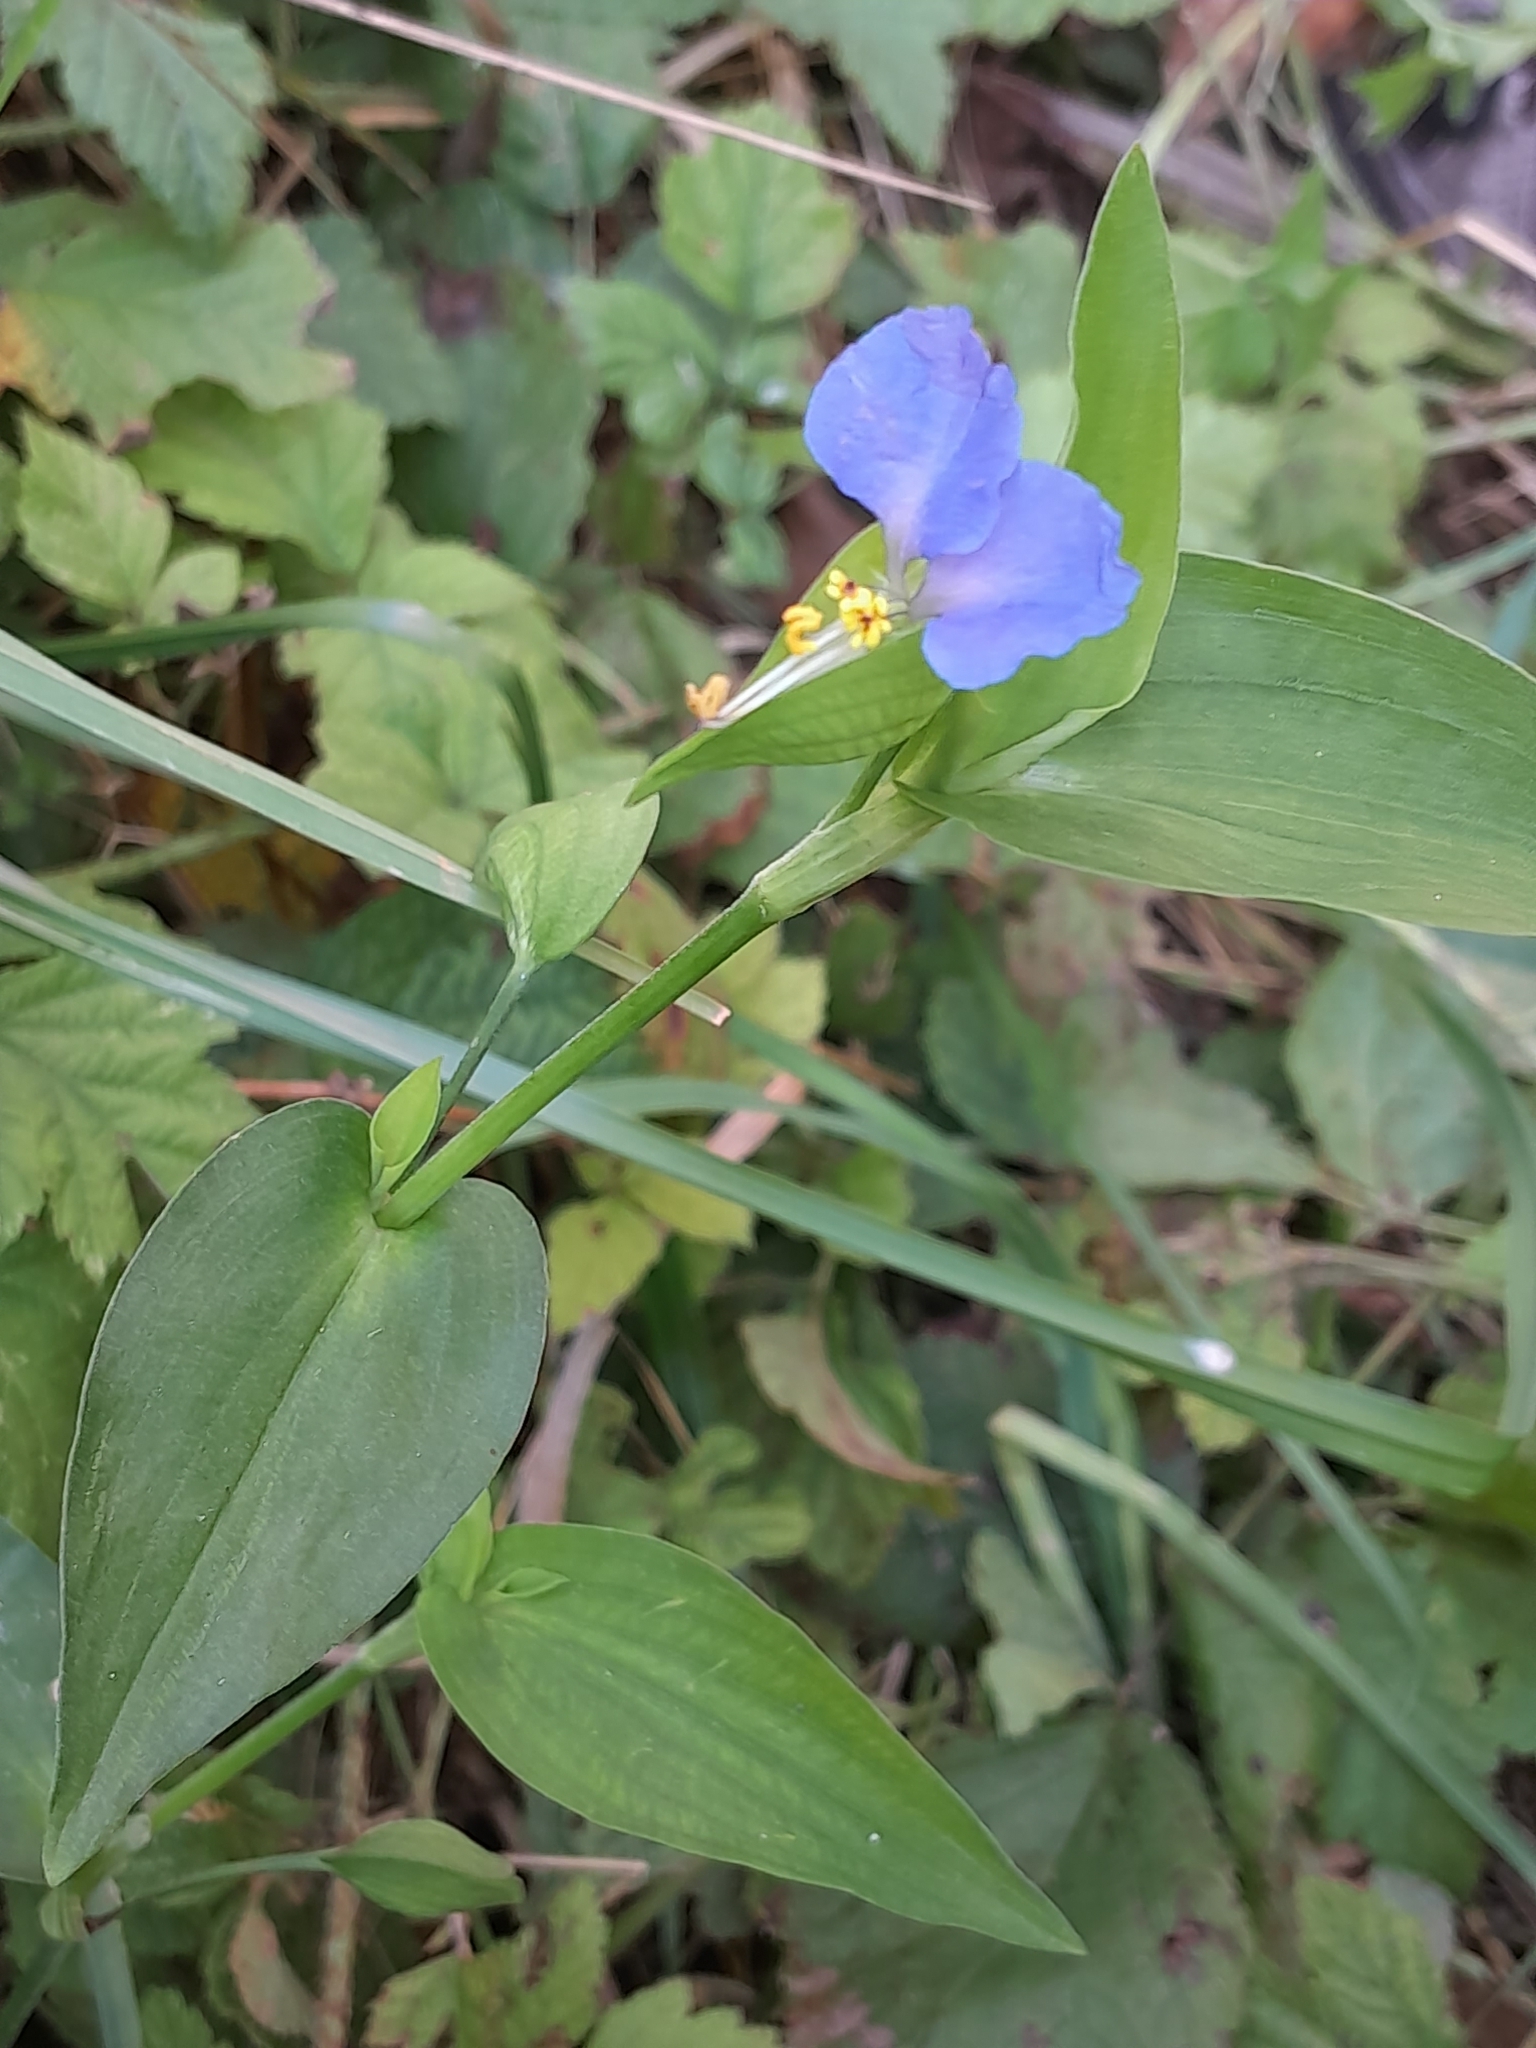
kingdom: Plantae
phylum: Tracheophyta
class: Liliopsida
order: Commelinales
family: Commelinaceae
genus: Commelina
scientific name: Commelina communis
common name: Asiatic dayflower
